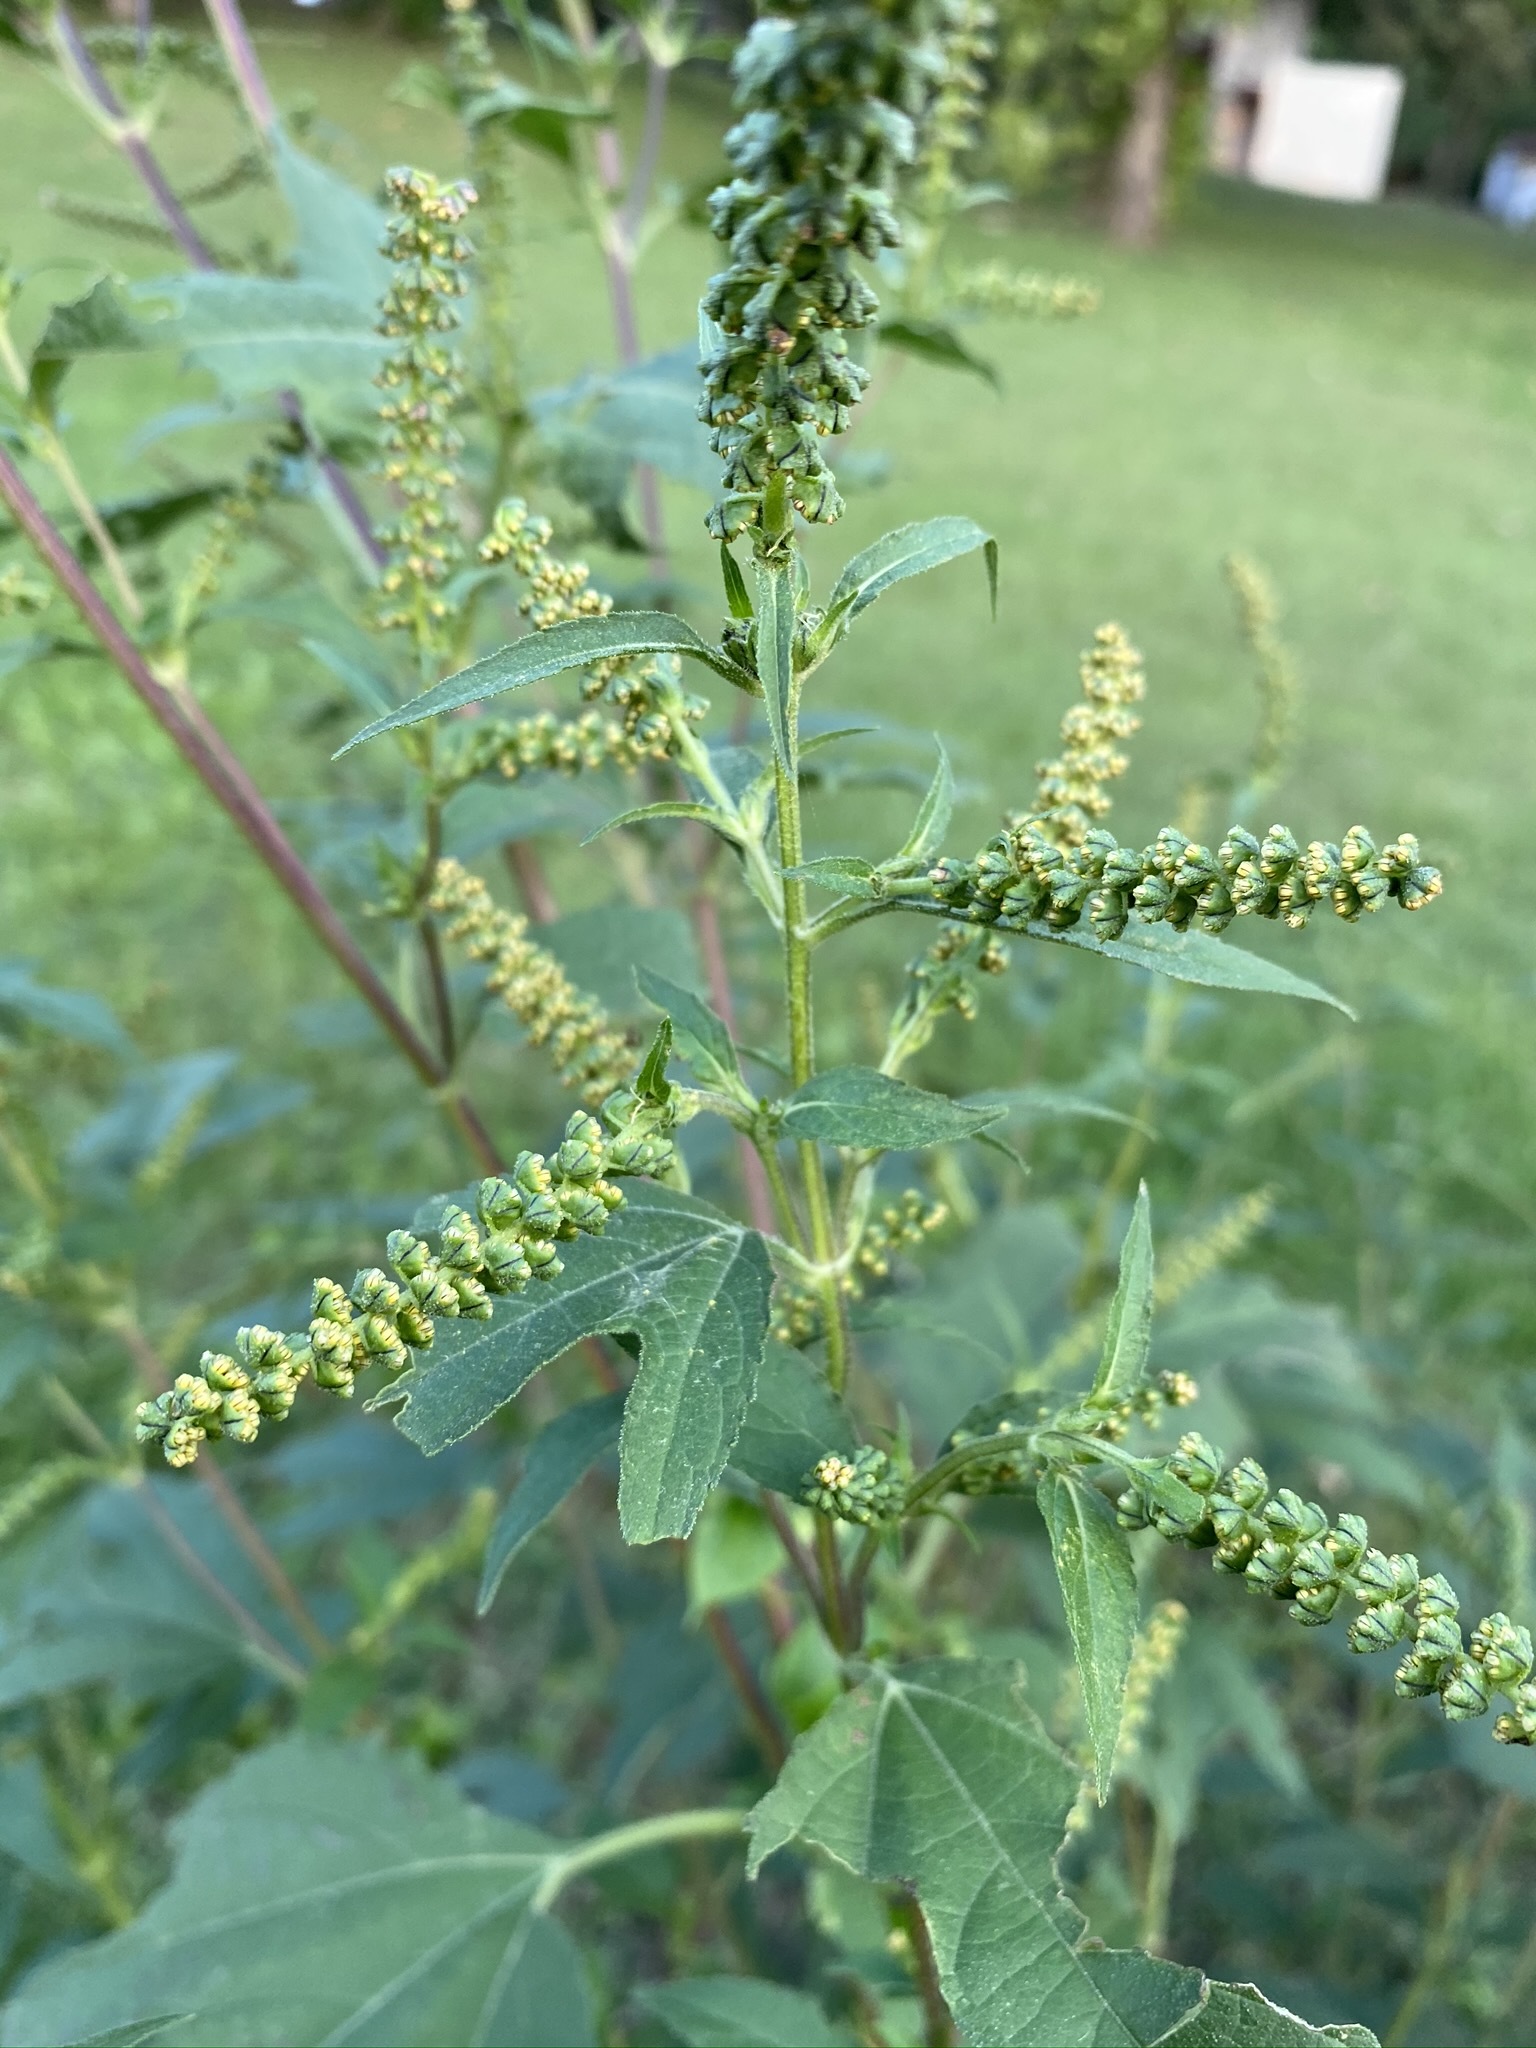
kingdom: Plantae
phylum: Tracheophyta
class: Magnoliopsida
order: Asterales
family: Asteraceae
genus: Ambrosia
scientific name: Ambrosia trifida
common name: Giant ragweed
